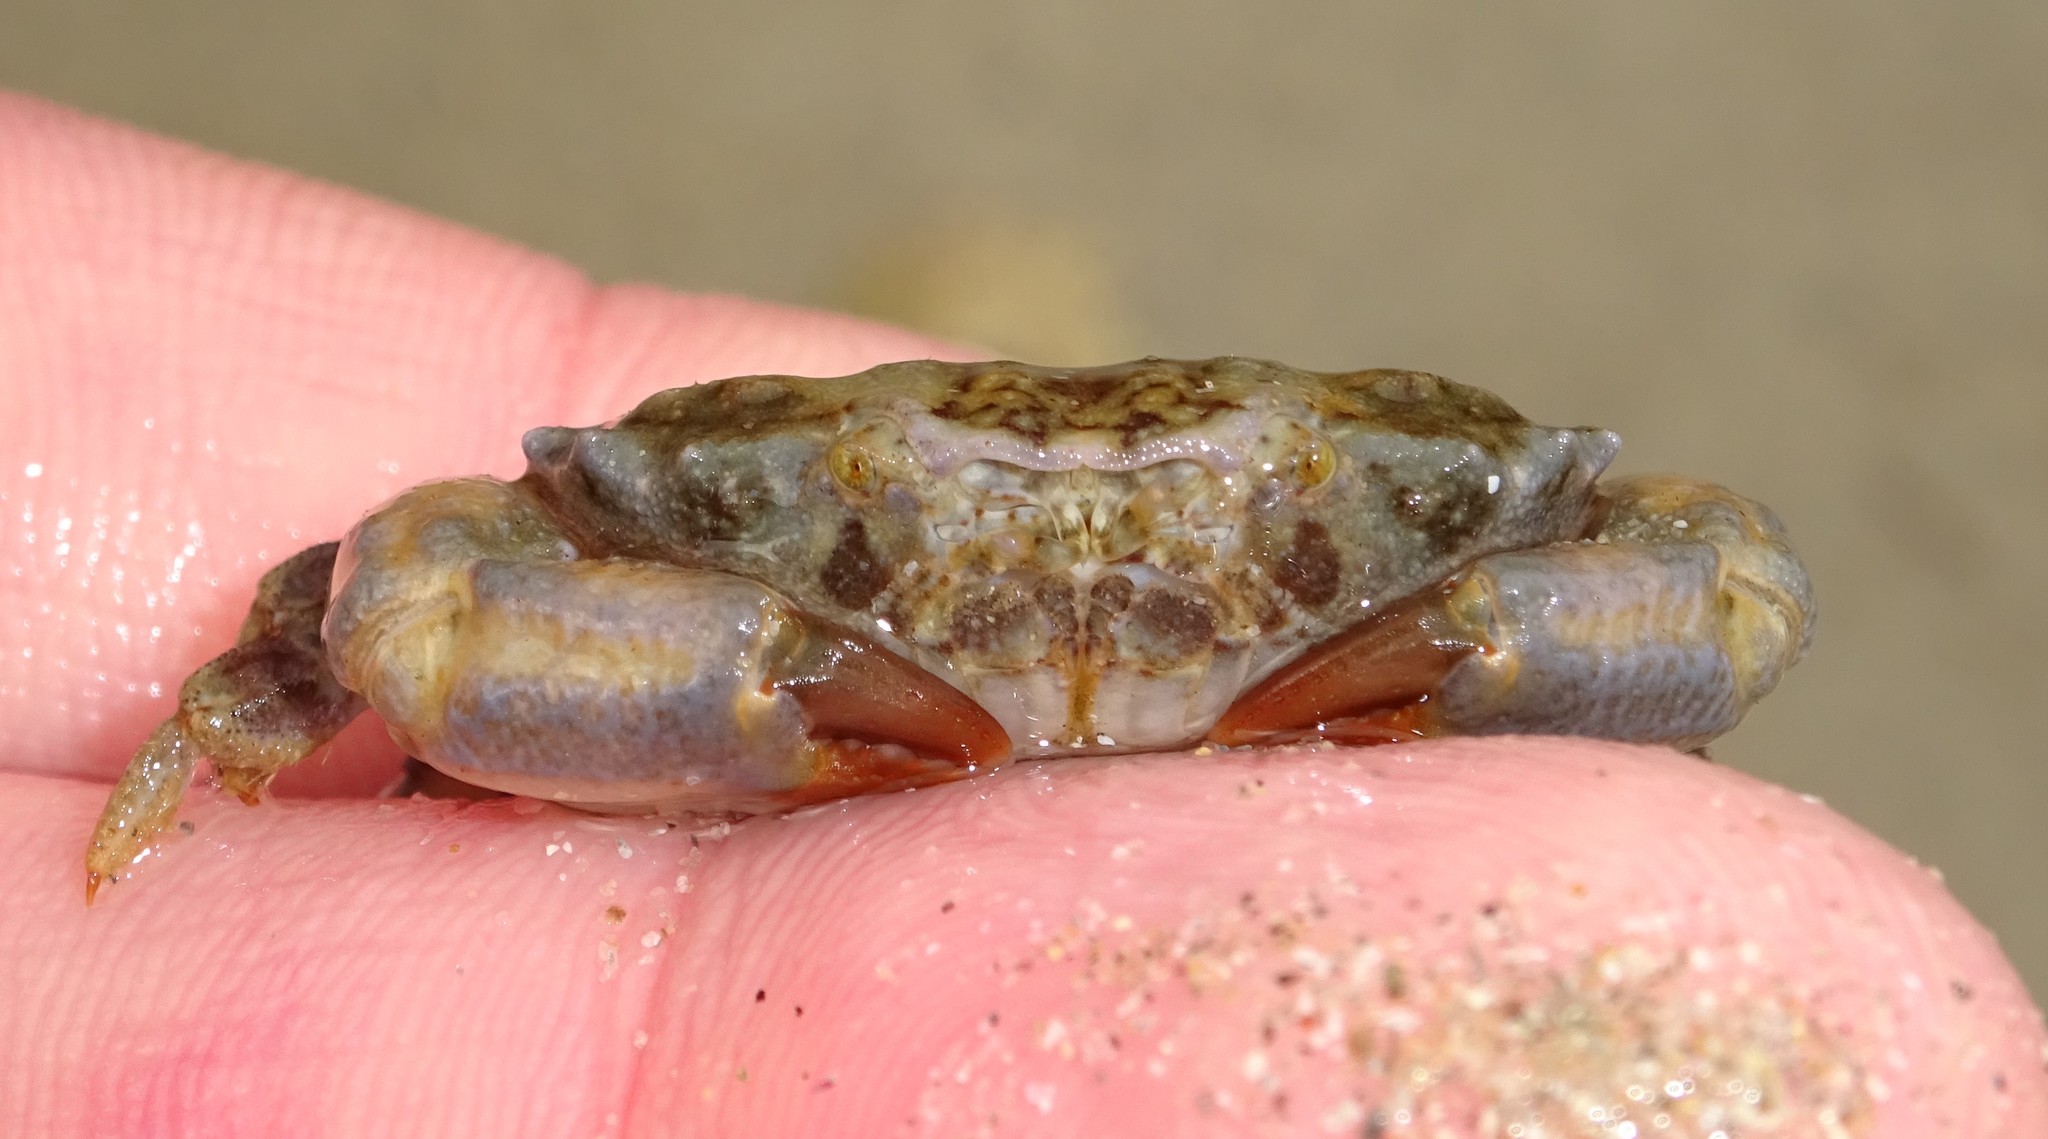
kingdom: Animalia
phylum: Arthropoda
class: Malacostraca
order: Decapoda
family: Xanthidae
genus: Xantho
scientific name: Xantho hydrophilus
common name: Montagu's crab
